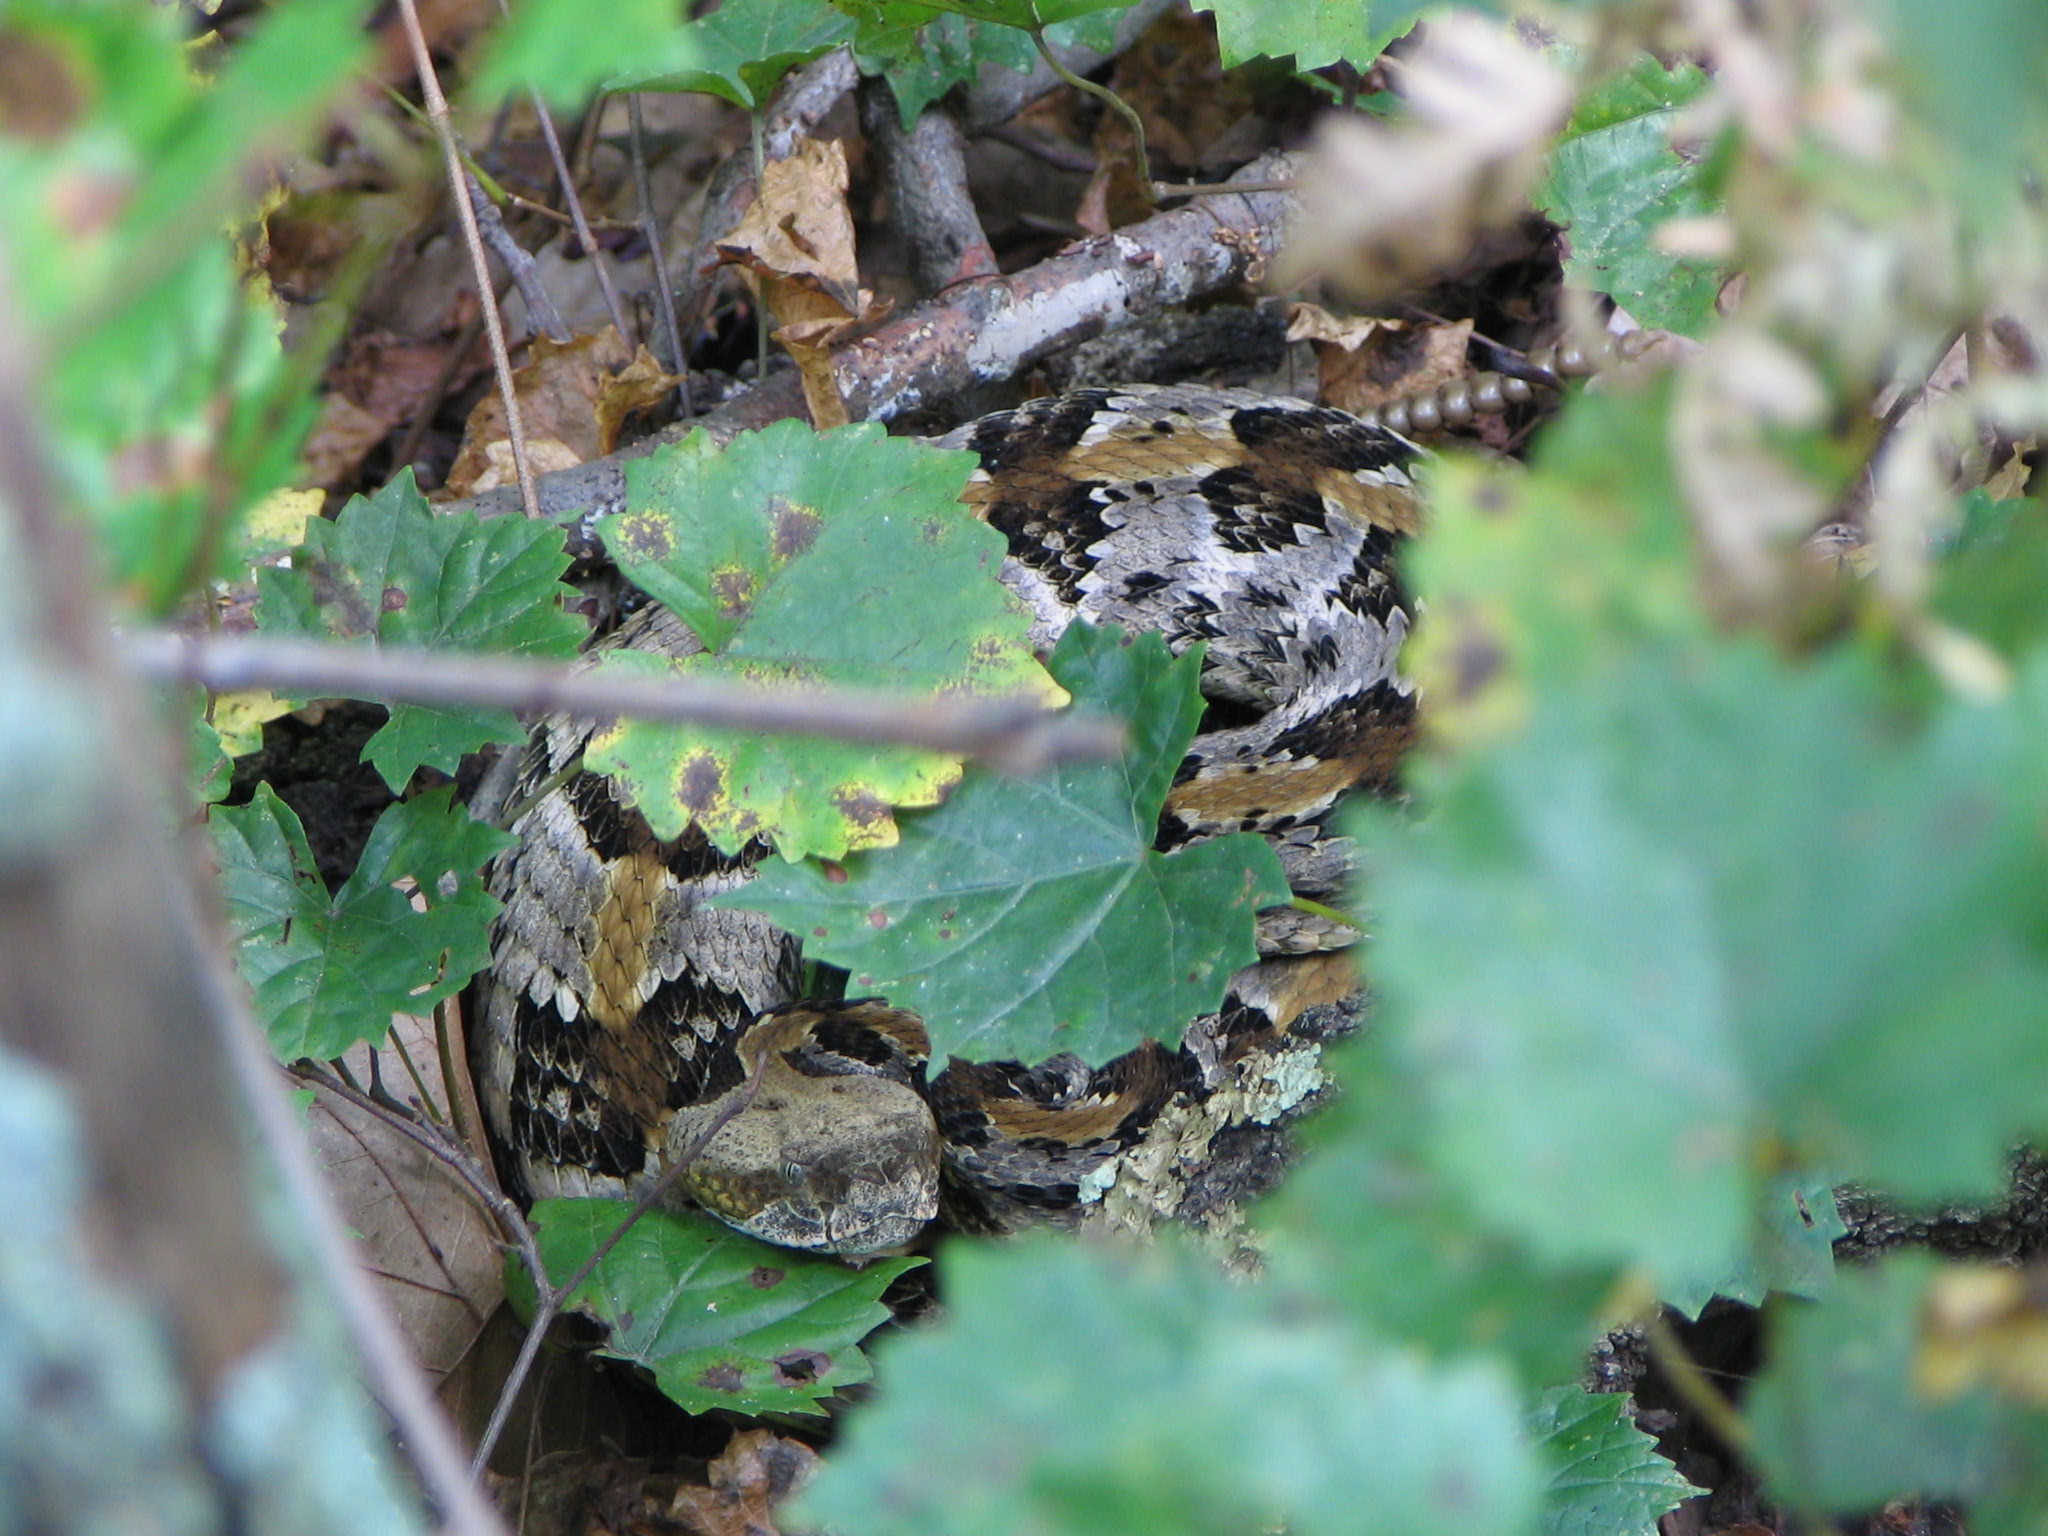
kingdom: Animalia
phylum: Chordata
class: Squamata
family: Viperidae
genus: Crotalus
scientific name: Crotalus horridus
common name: Timber rattlesnake
